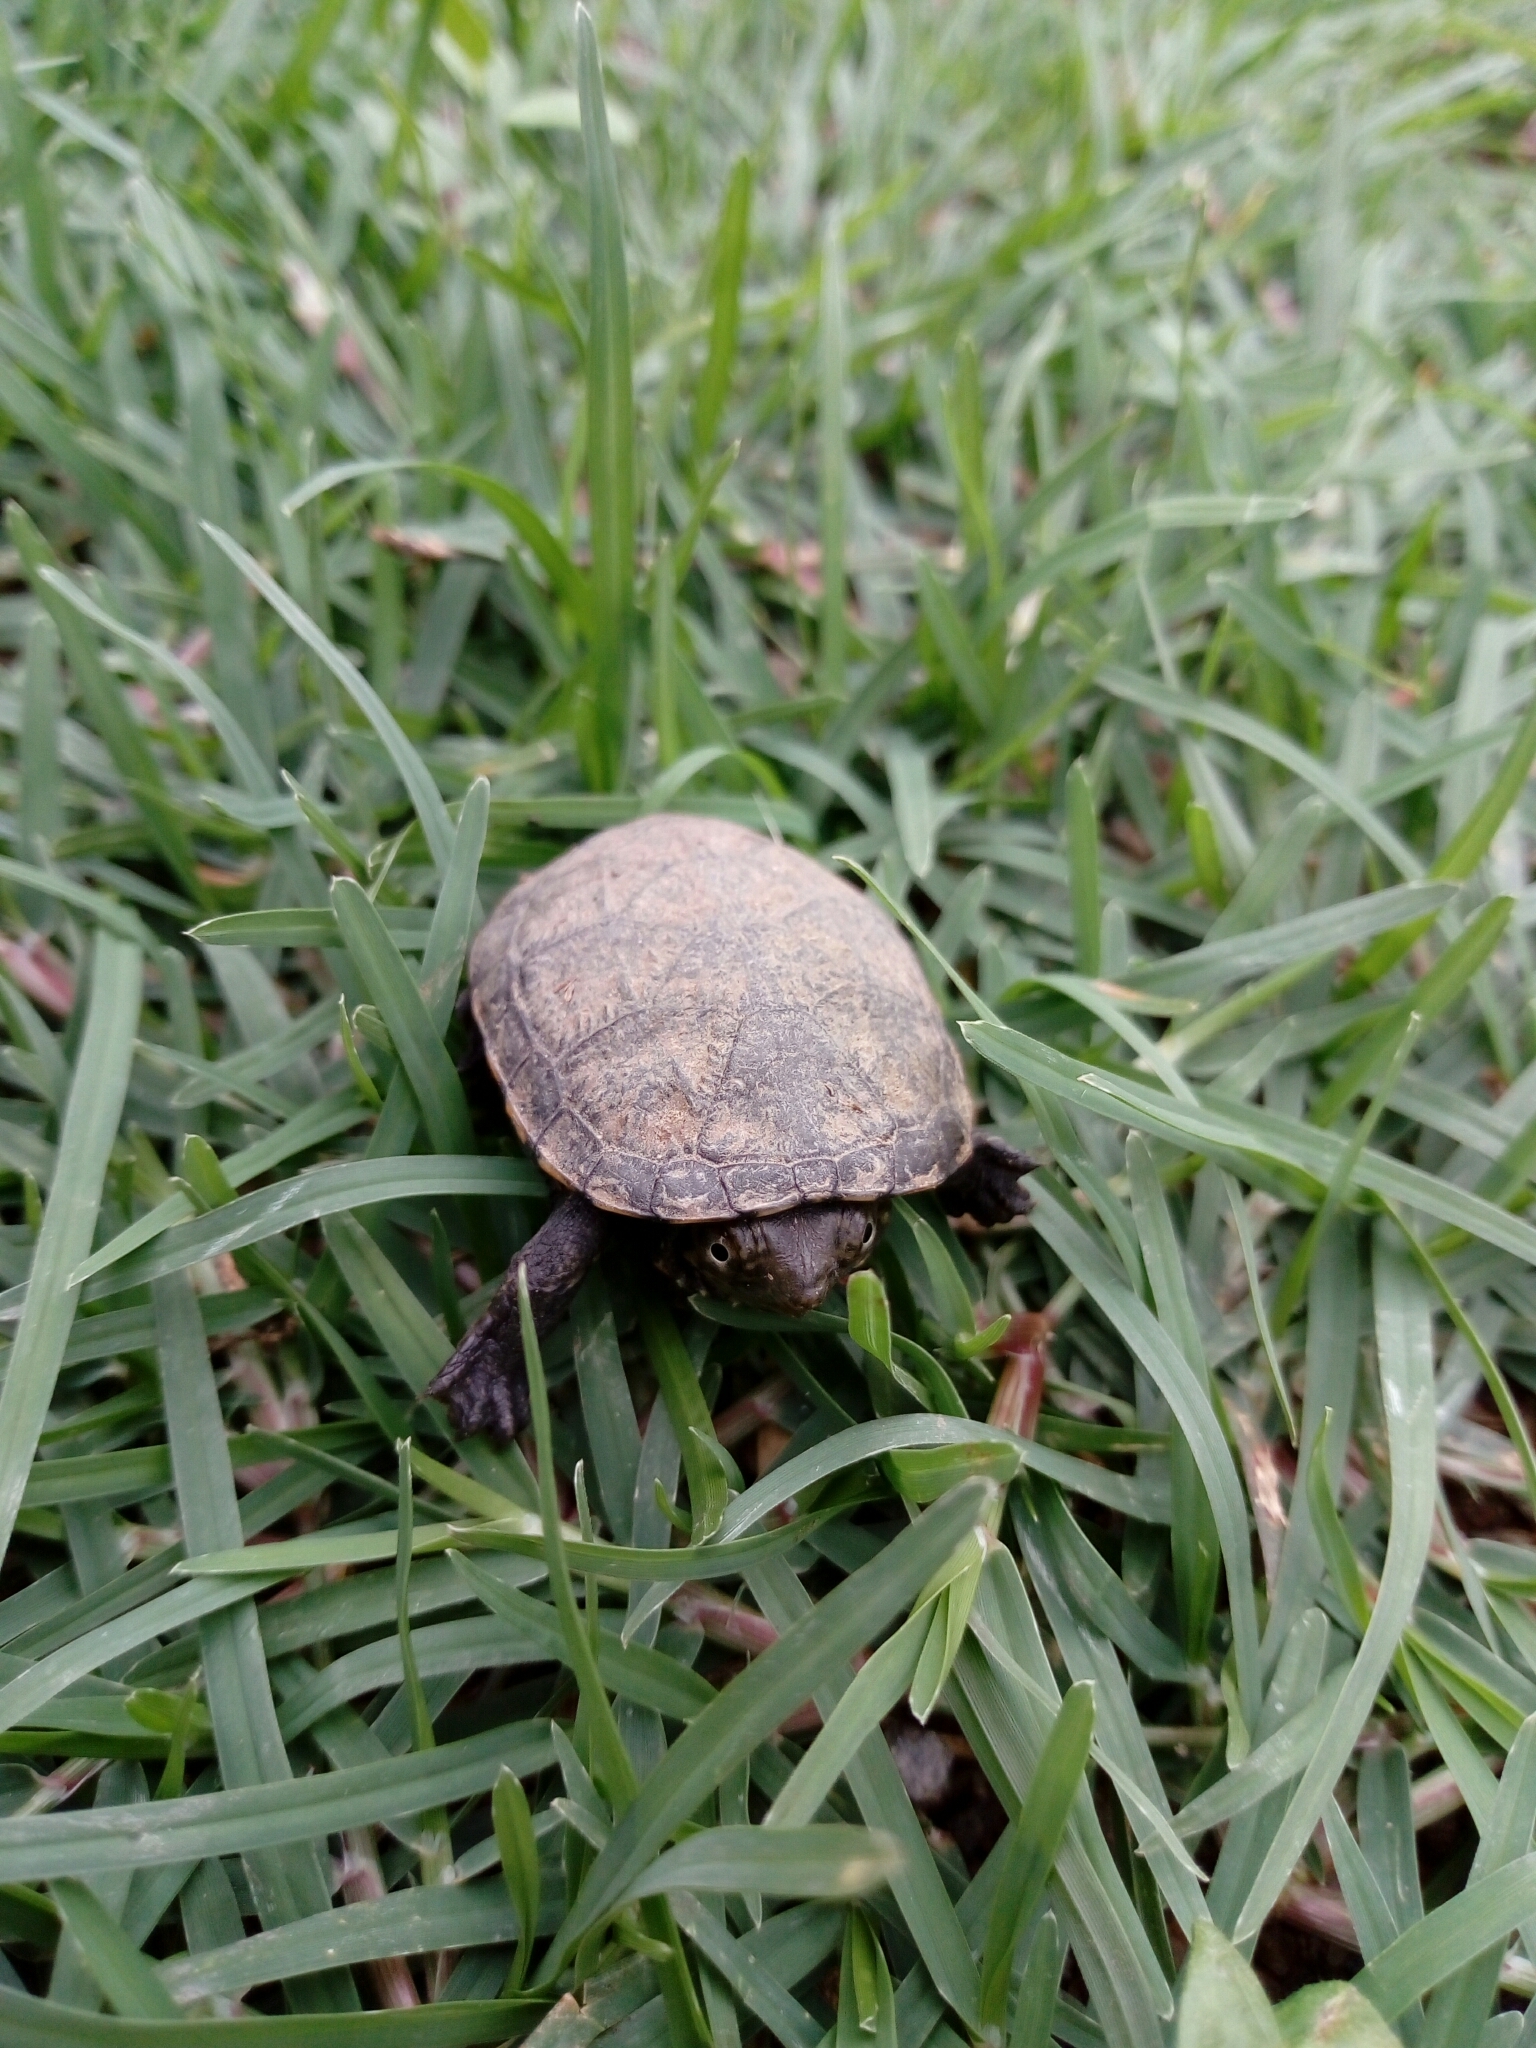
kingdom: Animalia
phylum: Chordata
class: Testudines
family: Kinosternidae
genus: Kinosternon
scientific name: Kinosternon integrum
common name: Mexican mud turtle
